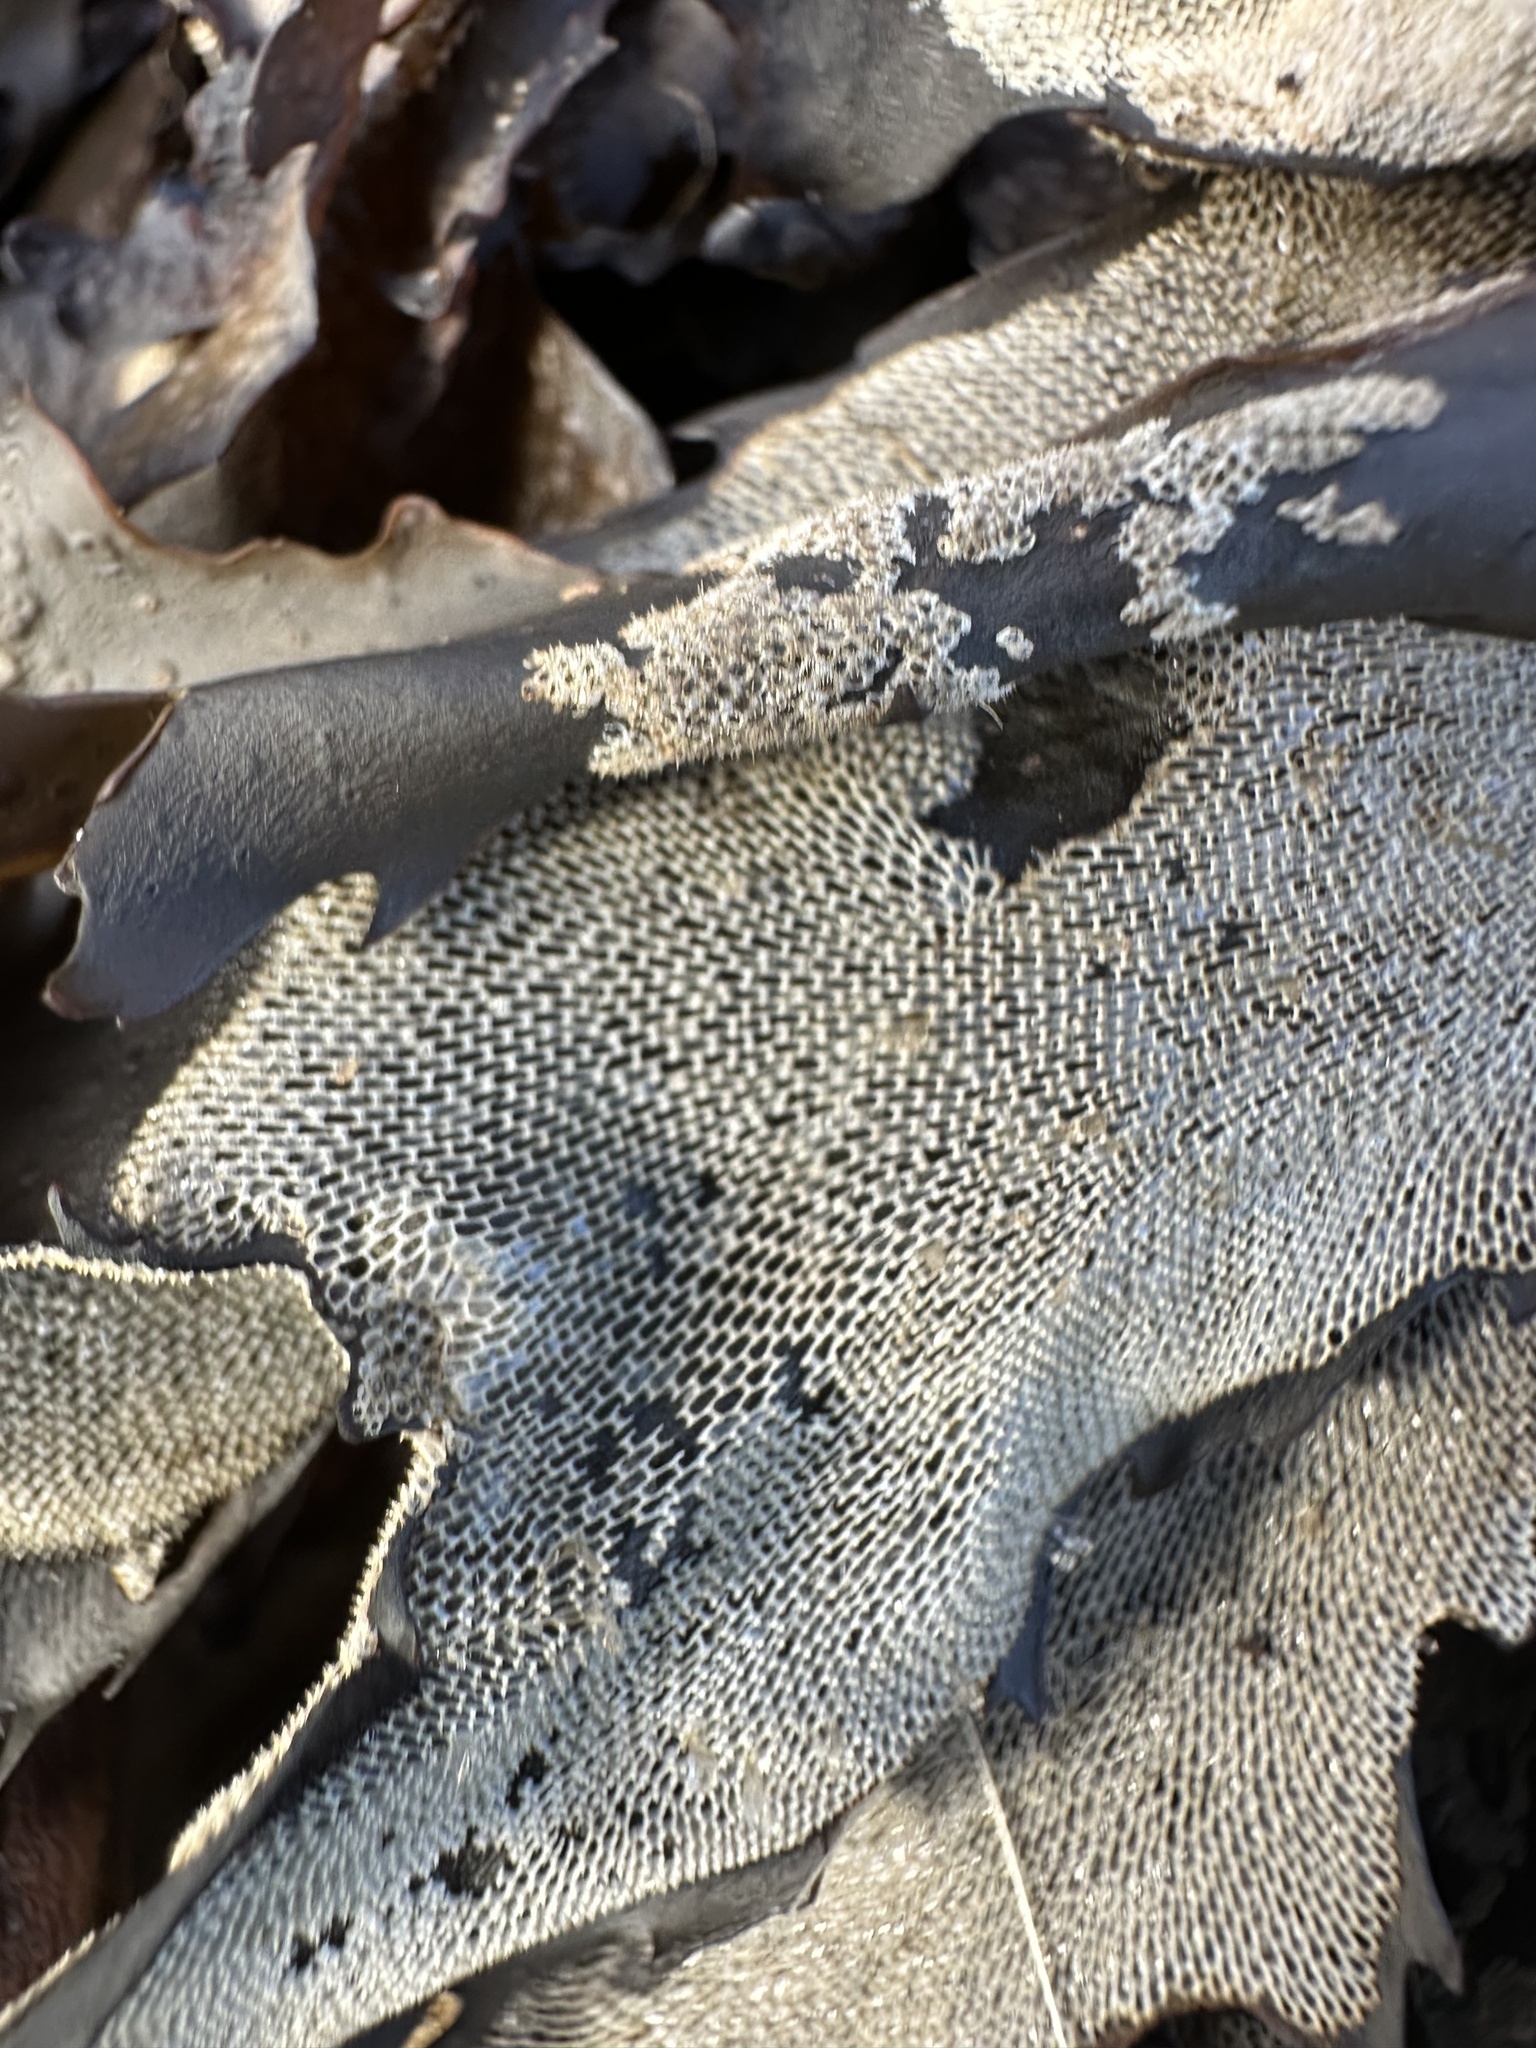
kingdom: Animalia
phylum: Bryozoa
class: Gymnolaemata
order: Cheilostomatida
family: Membraniporidae
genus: Membranipora
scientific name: Membranipora membranacea
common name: Sea mat
